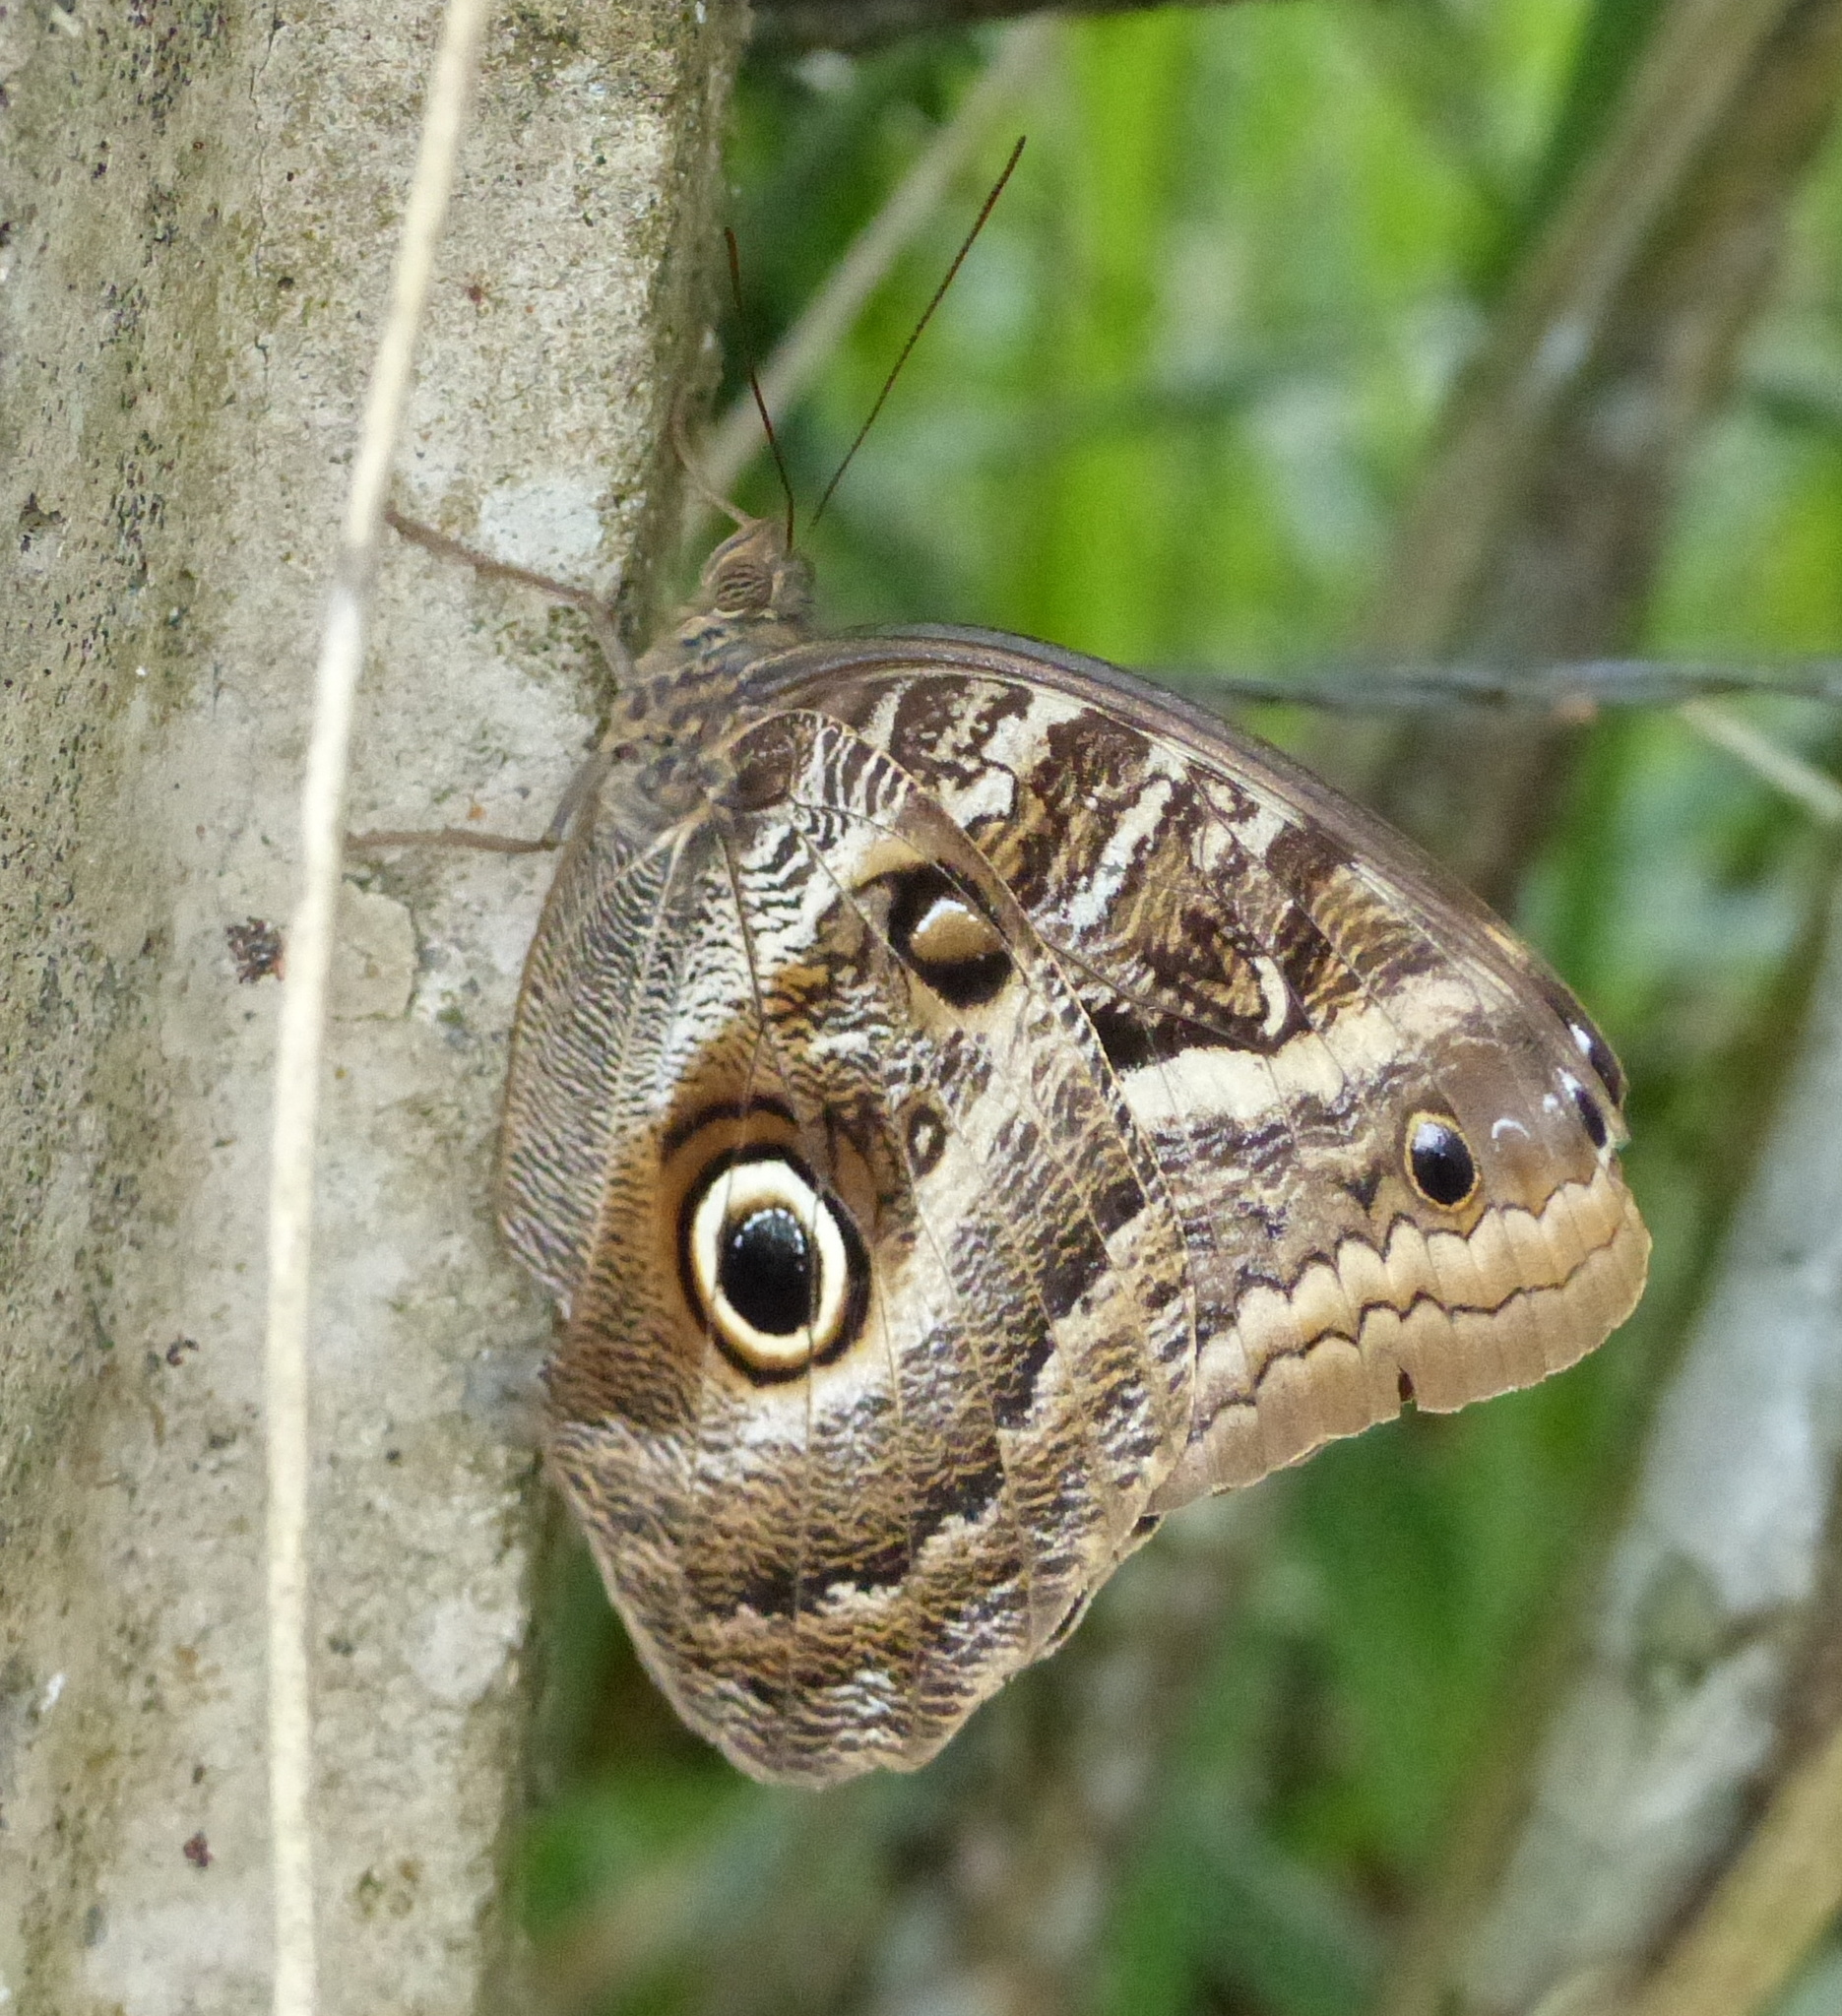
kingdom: Animalia
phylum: Arthropoda
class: Insecta
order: Lepidoptera
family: Nymphalidae
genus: Caligo
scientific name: Caligo teucer
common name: Teucer owl butterfly
